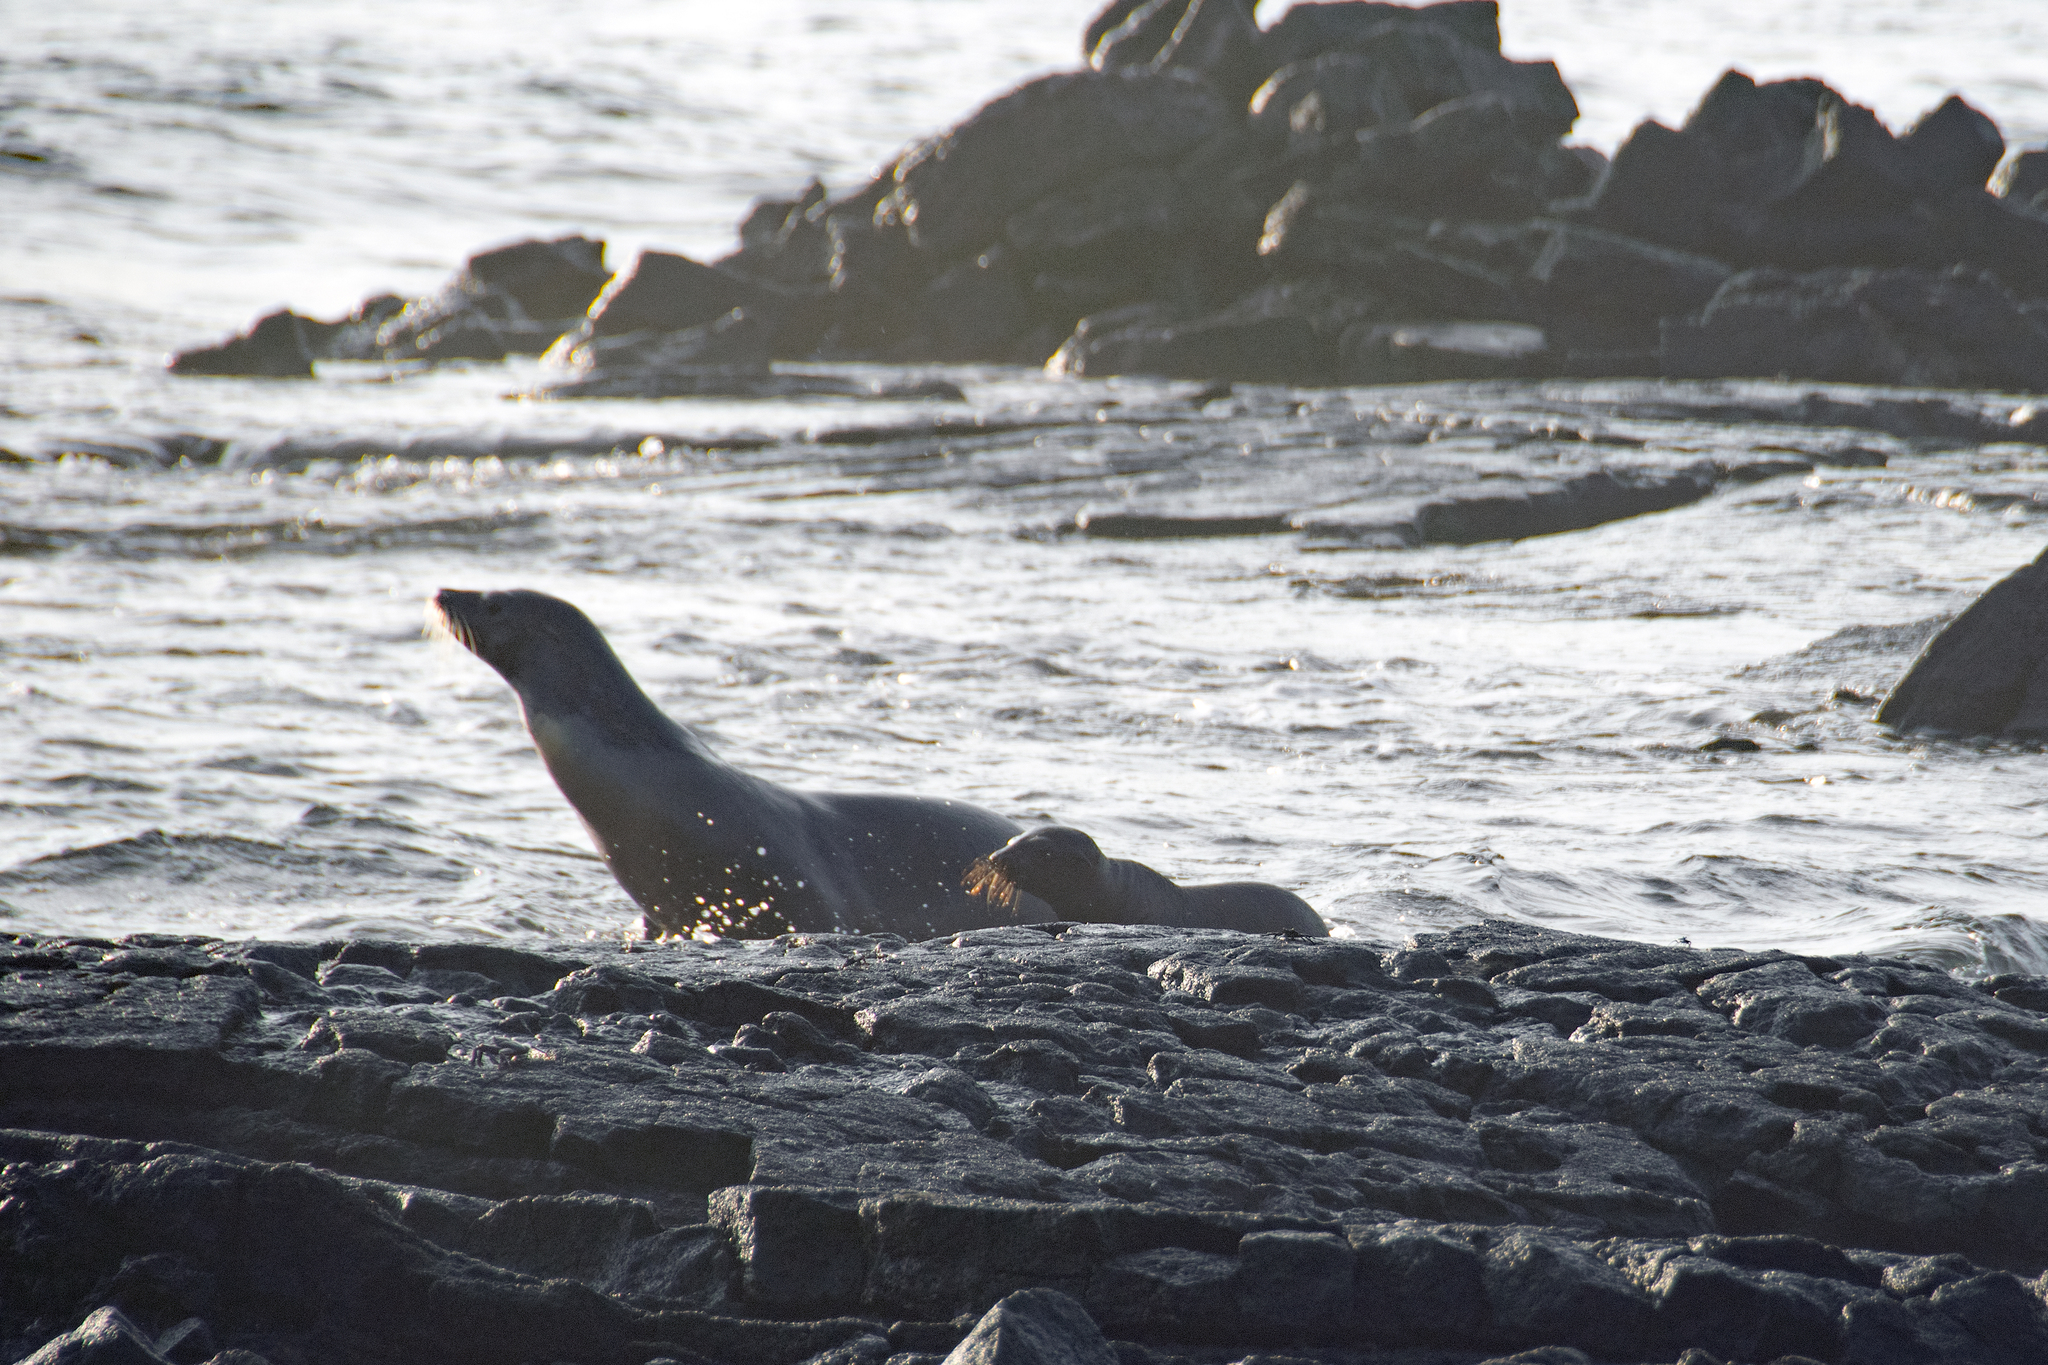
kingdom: Animalia
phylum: Chordata
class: Mammalia
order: Carnivora
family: Otariidae
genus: Zalophus
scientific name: Zalophus wollebaeki
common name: Galapagos sea lion
